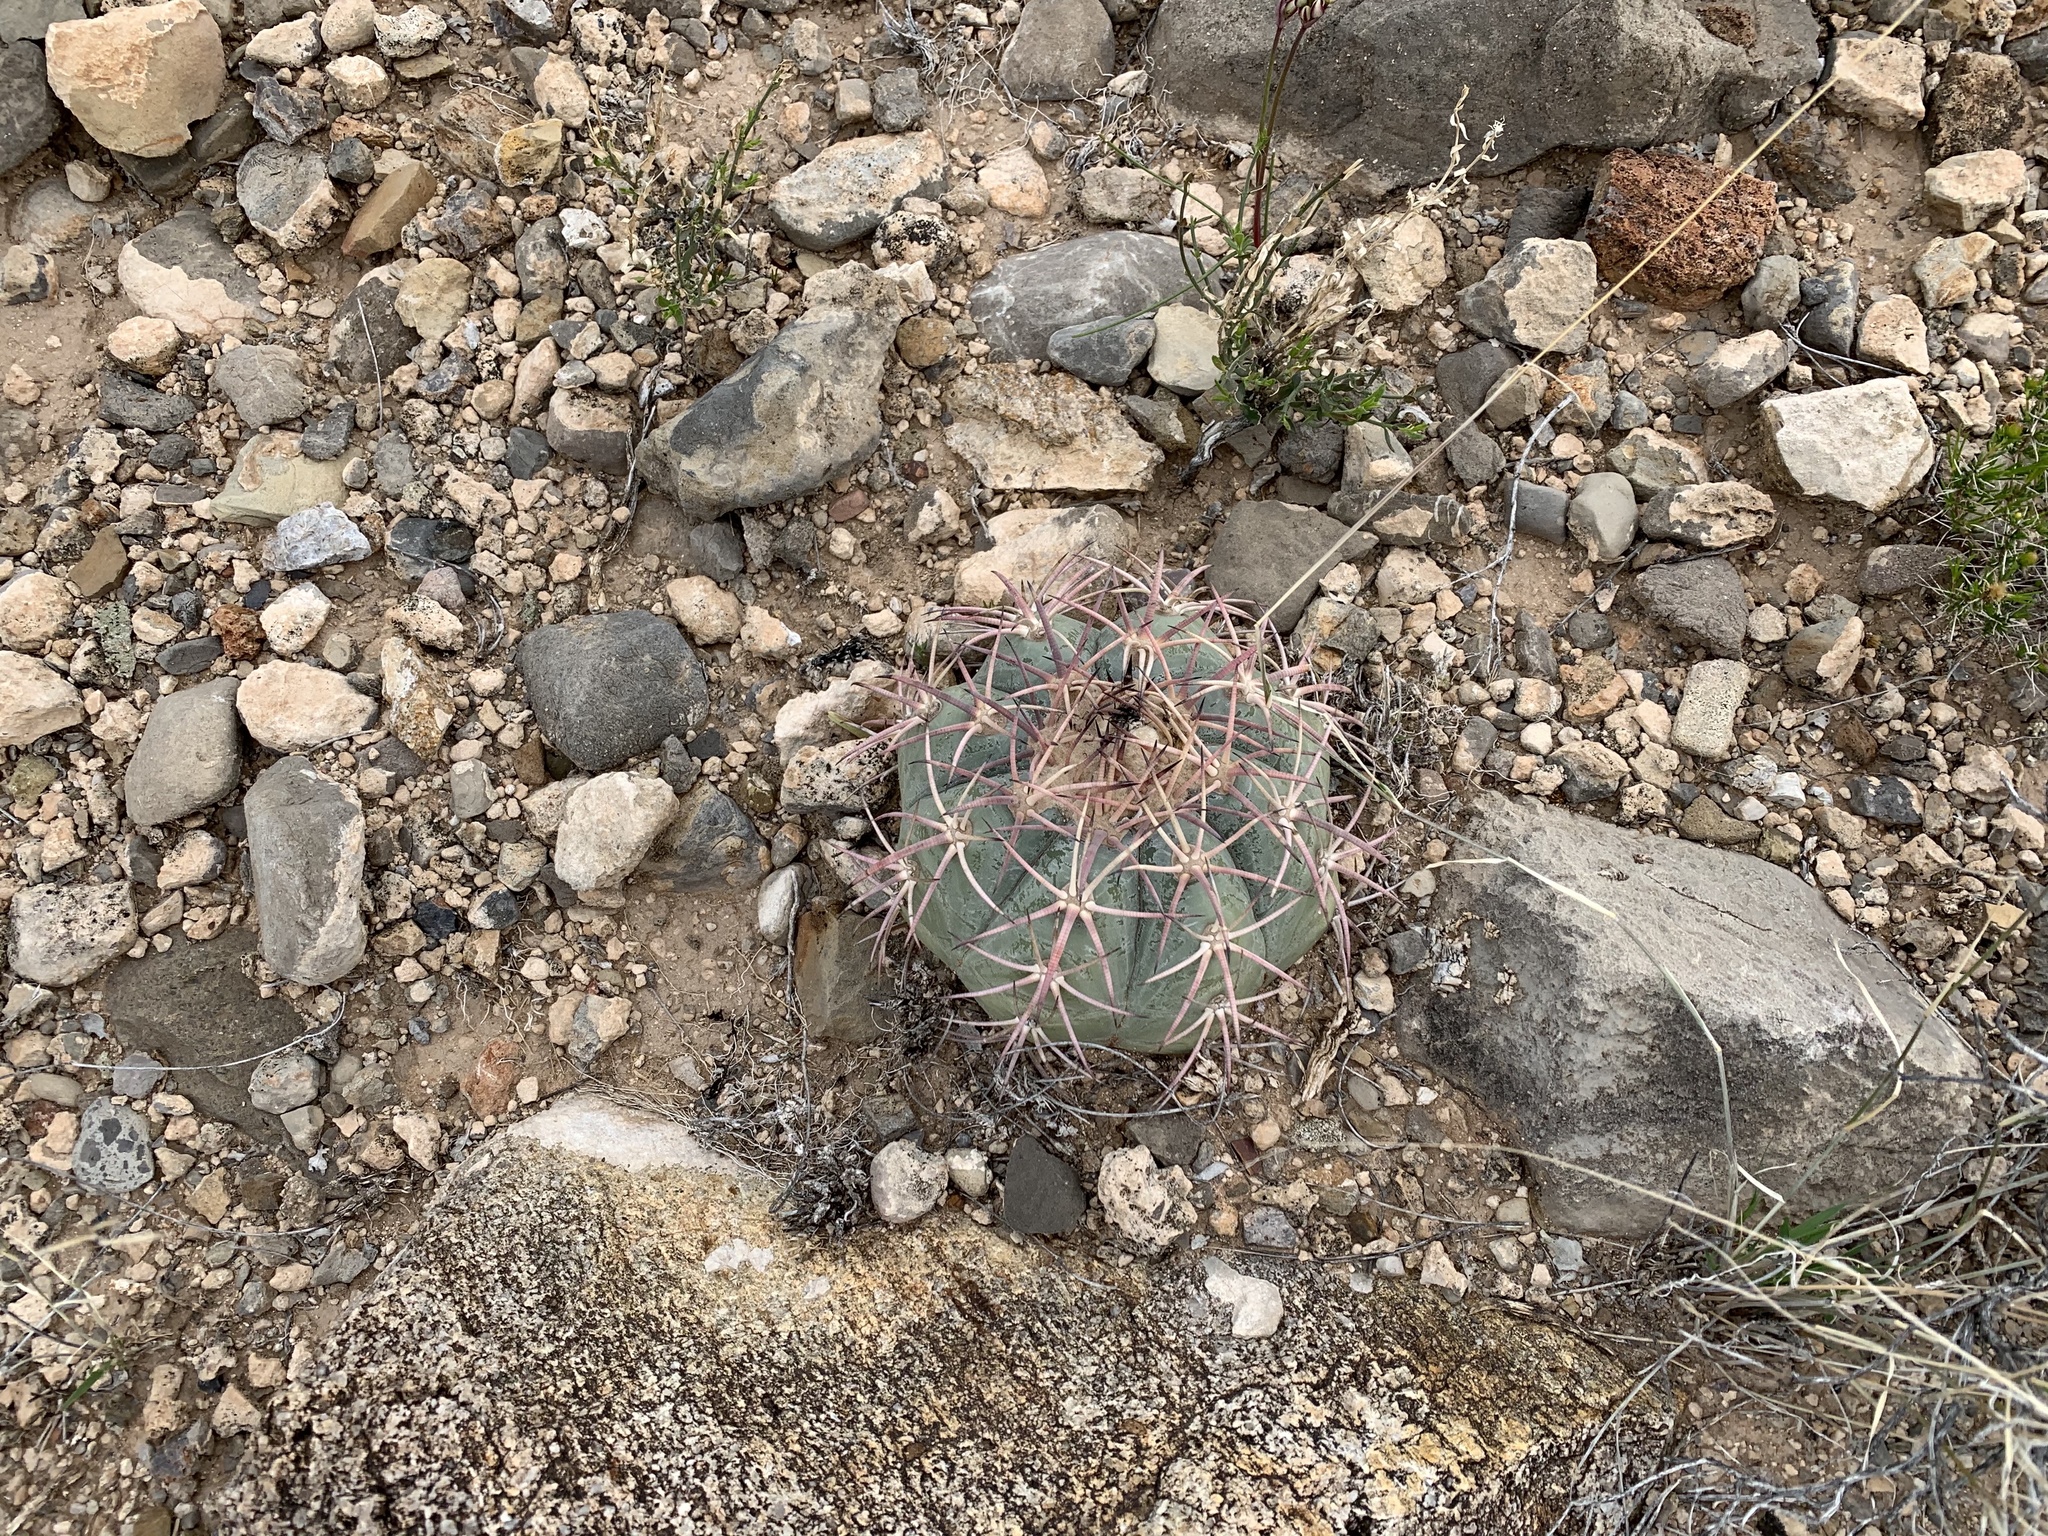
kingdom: Plantae
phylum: Tracheophyta
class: Magnoliopsida
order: Caryophyllales
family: Cactaceae
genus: Echinocactus
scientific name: Echinocactus horizonthalonius
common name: Devilshead
